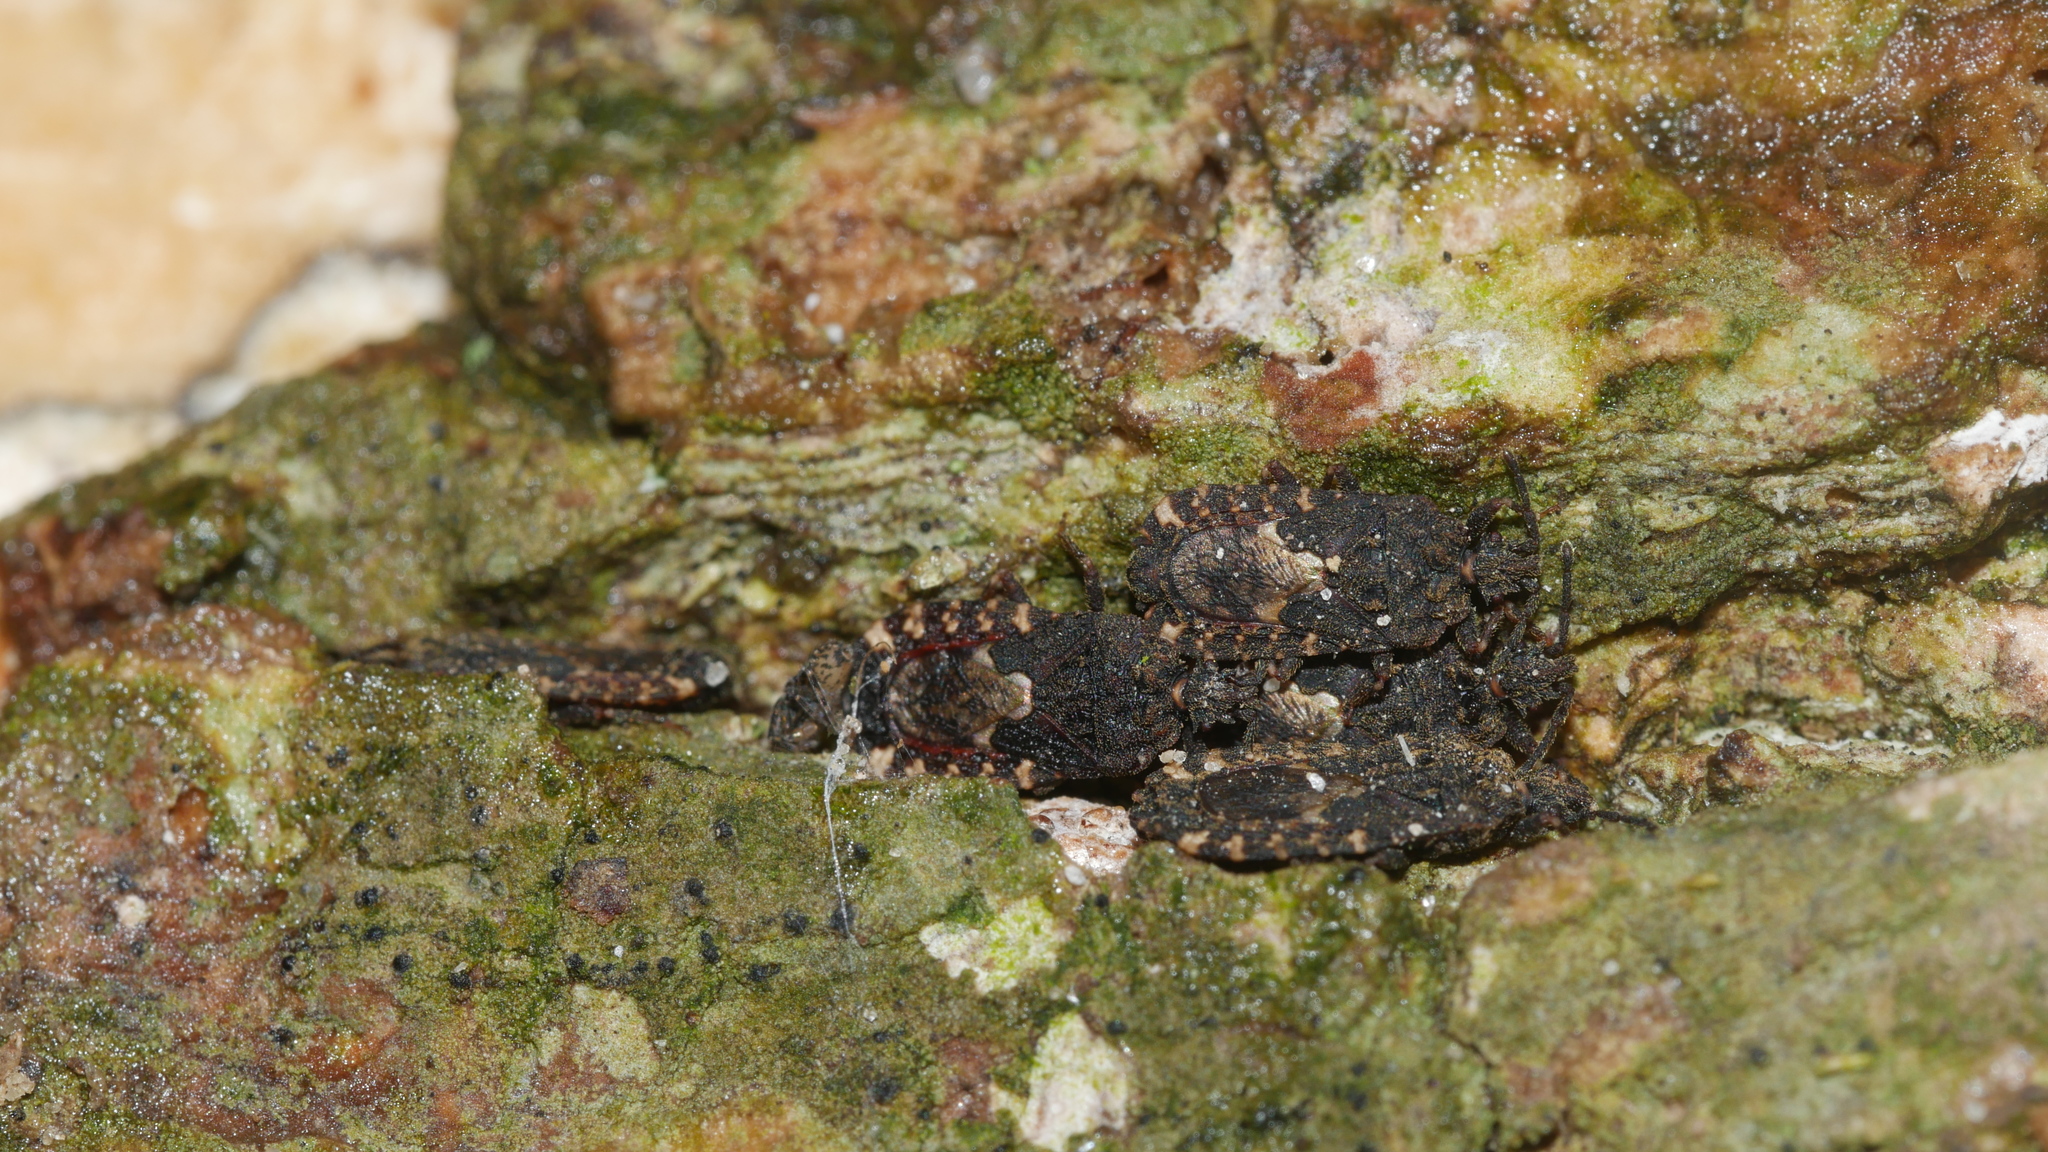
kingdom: Animalia
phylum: Arthropoda
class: Insecta
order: Hemiptera
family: Aradidae
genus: Mezira
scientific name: Mezira
